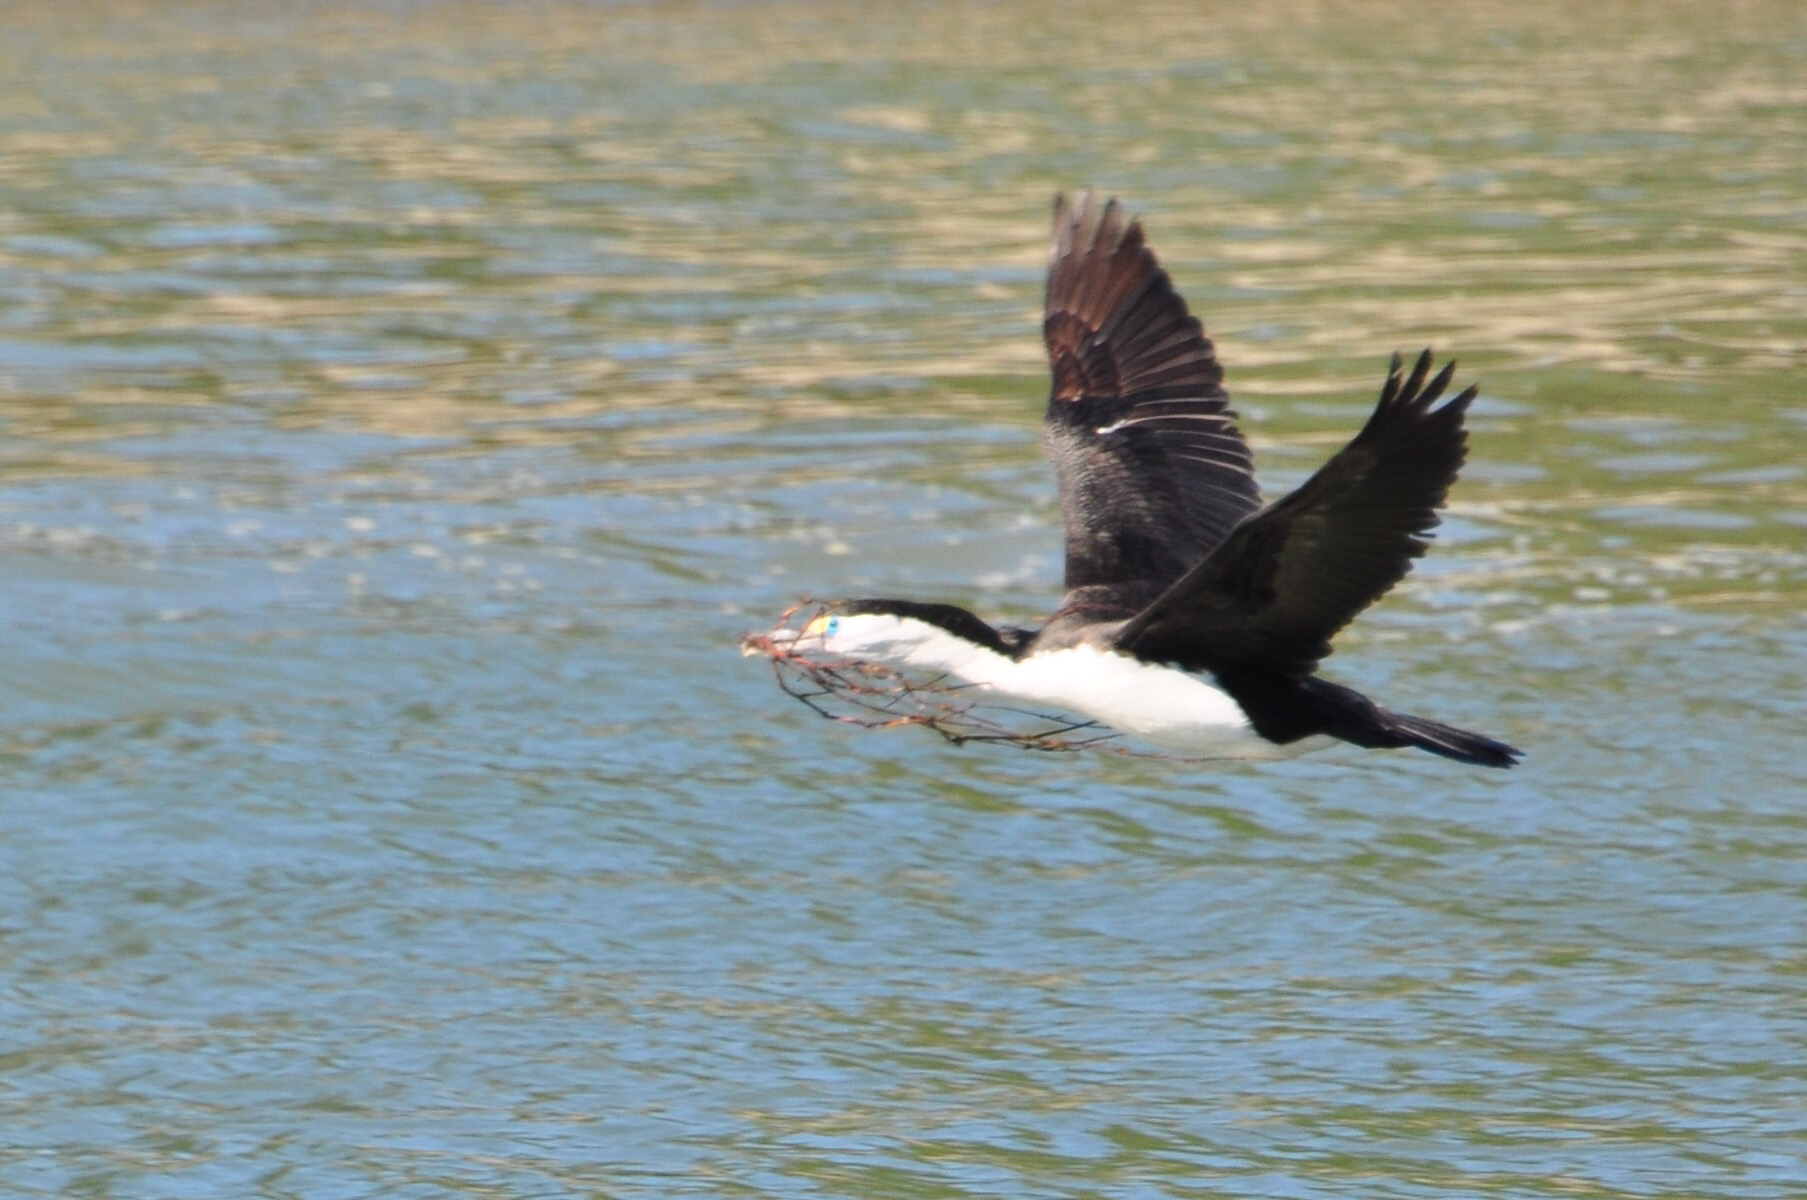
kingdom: Animalia
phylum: Chordata
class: Aves
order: Suliformes
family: Phalacrocoracidae
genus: Phalacrocorax
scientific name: Phalacrocorax varius
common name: Pied cormorant
